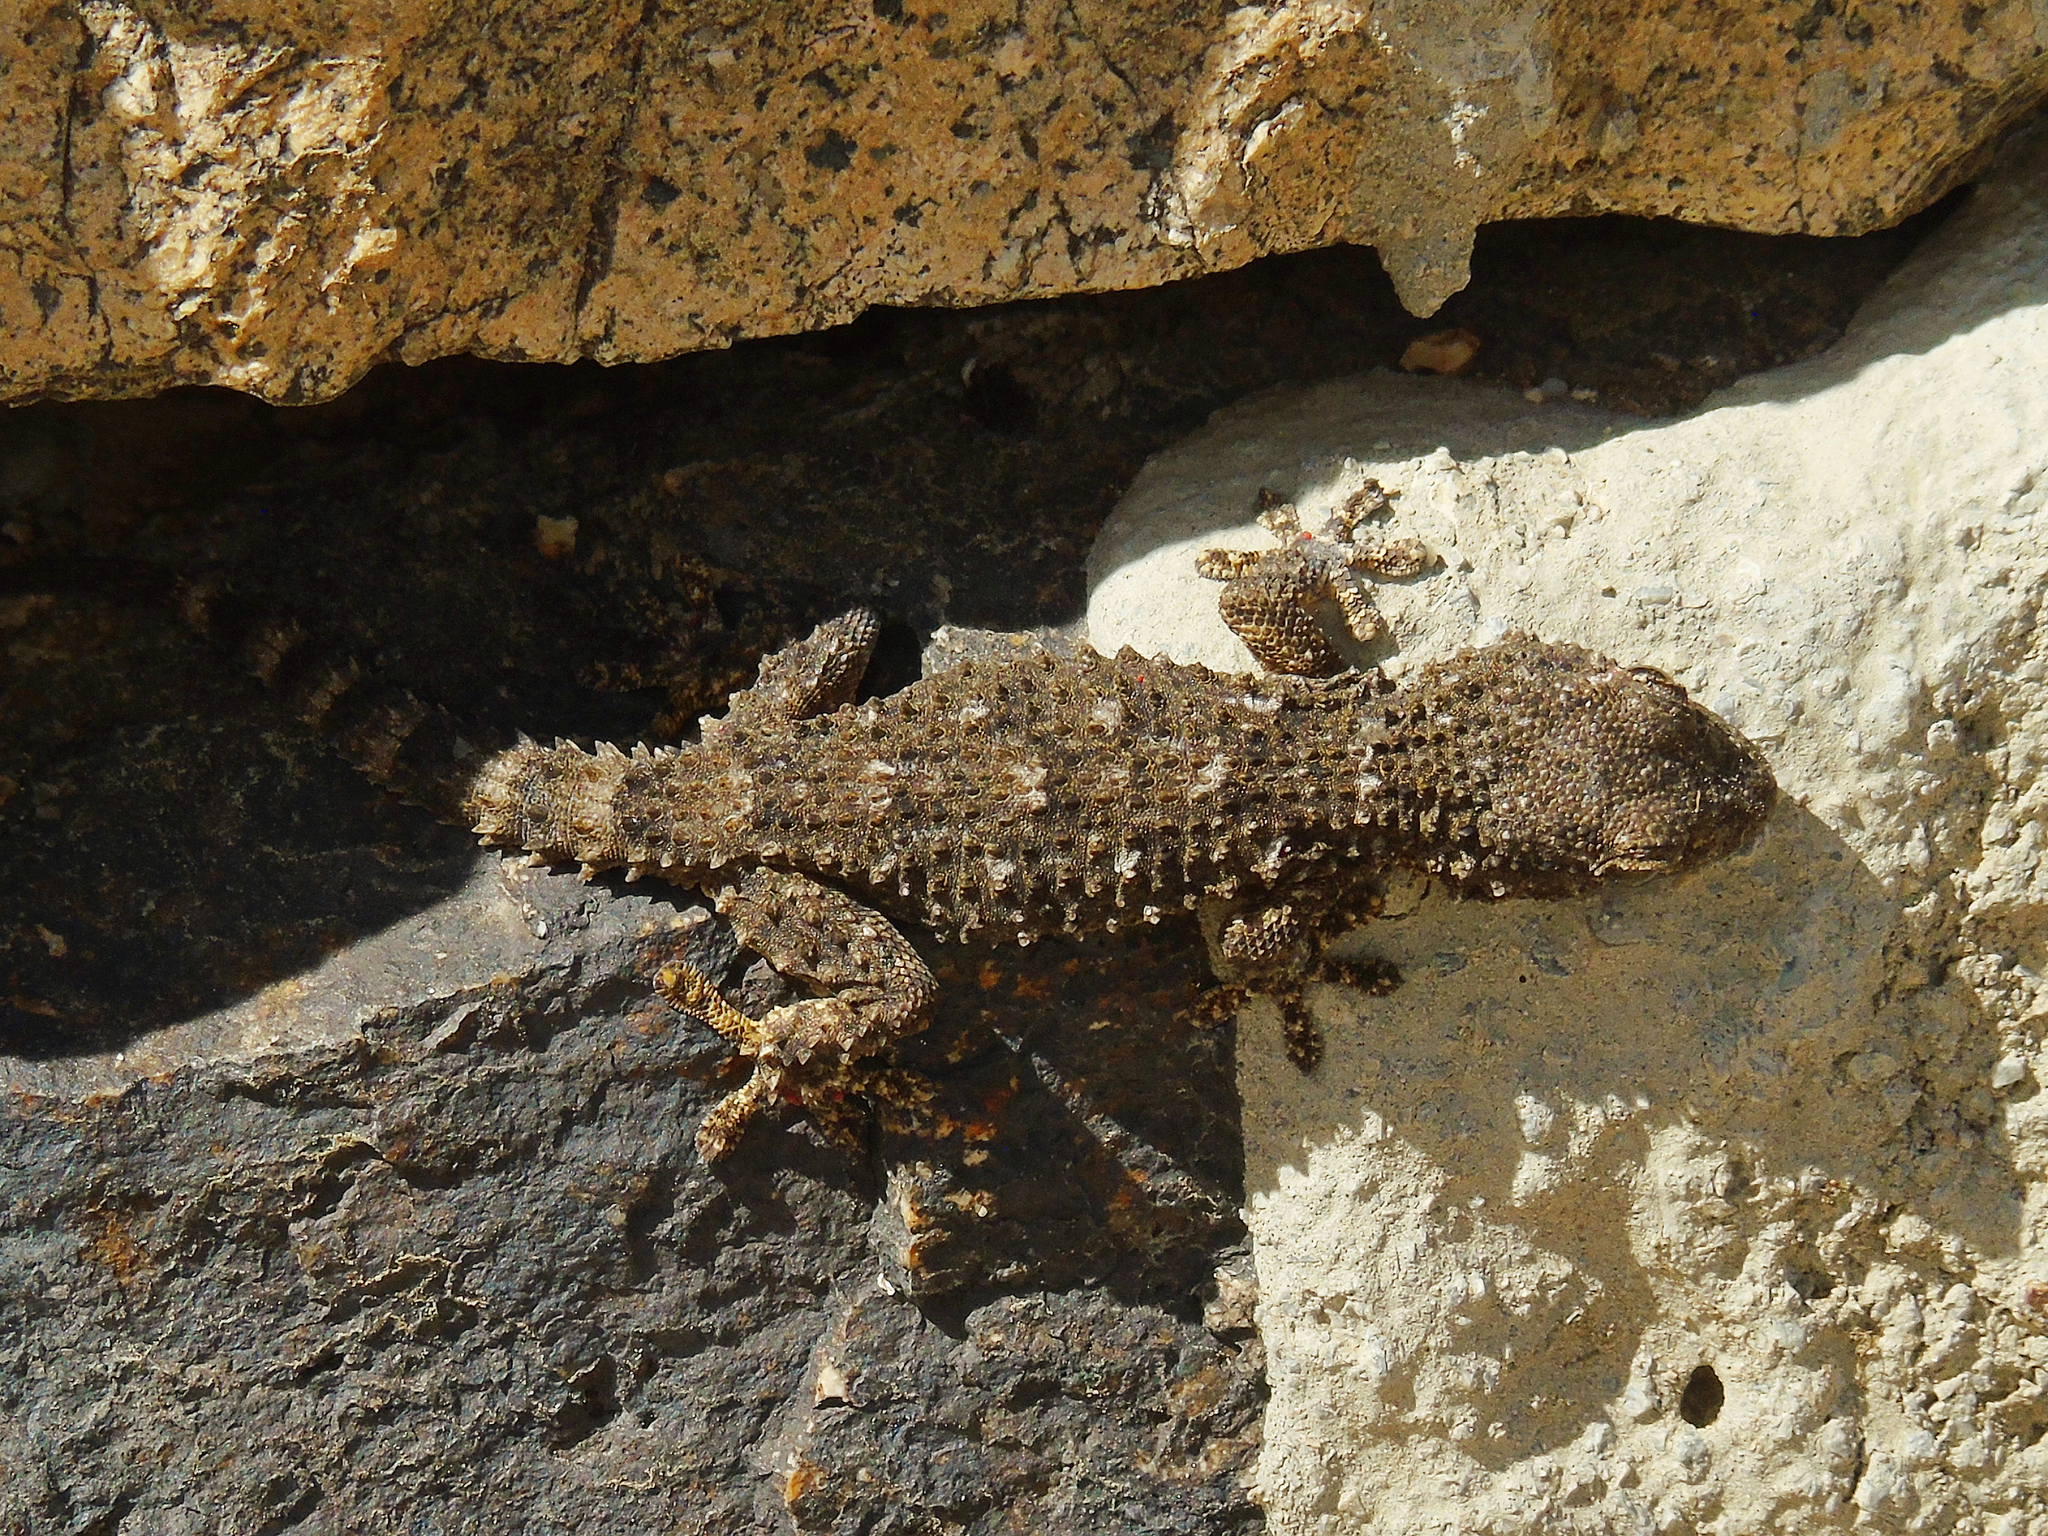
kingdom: Animalia
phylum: Chordata
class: Squamata
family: Phyllodactylidae
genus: Tarentola
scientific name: Tarentola mauritanica
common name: Moorish gecko
